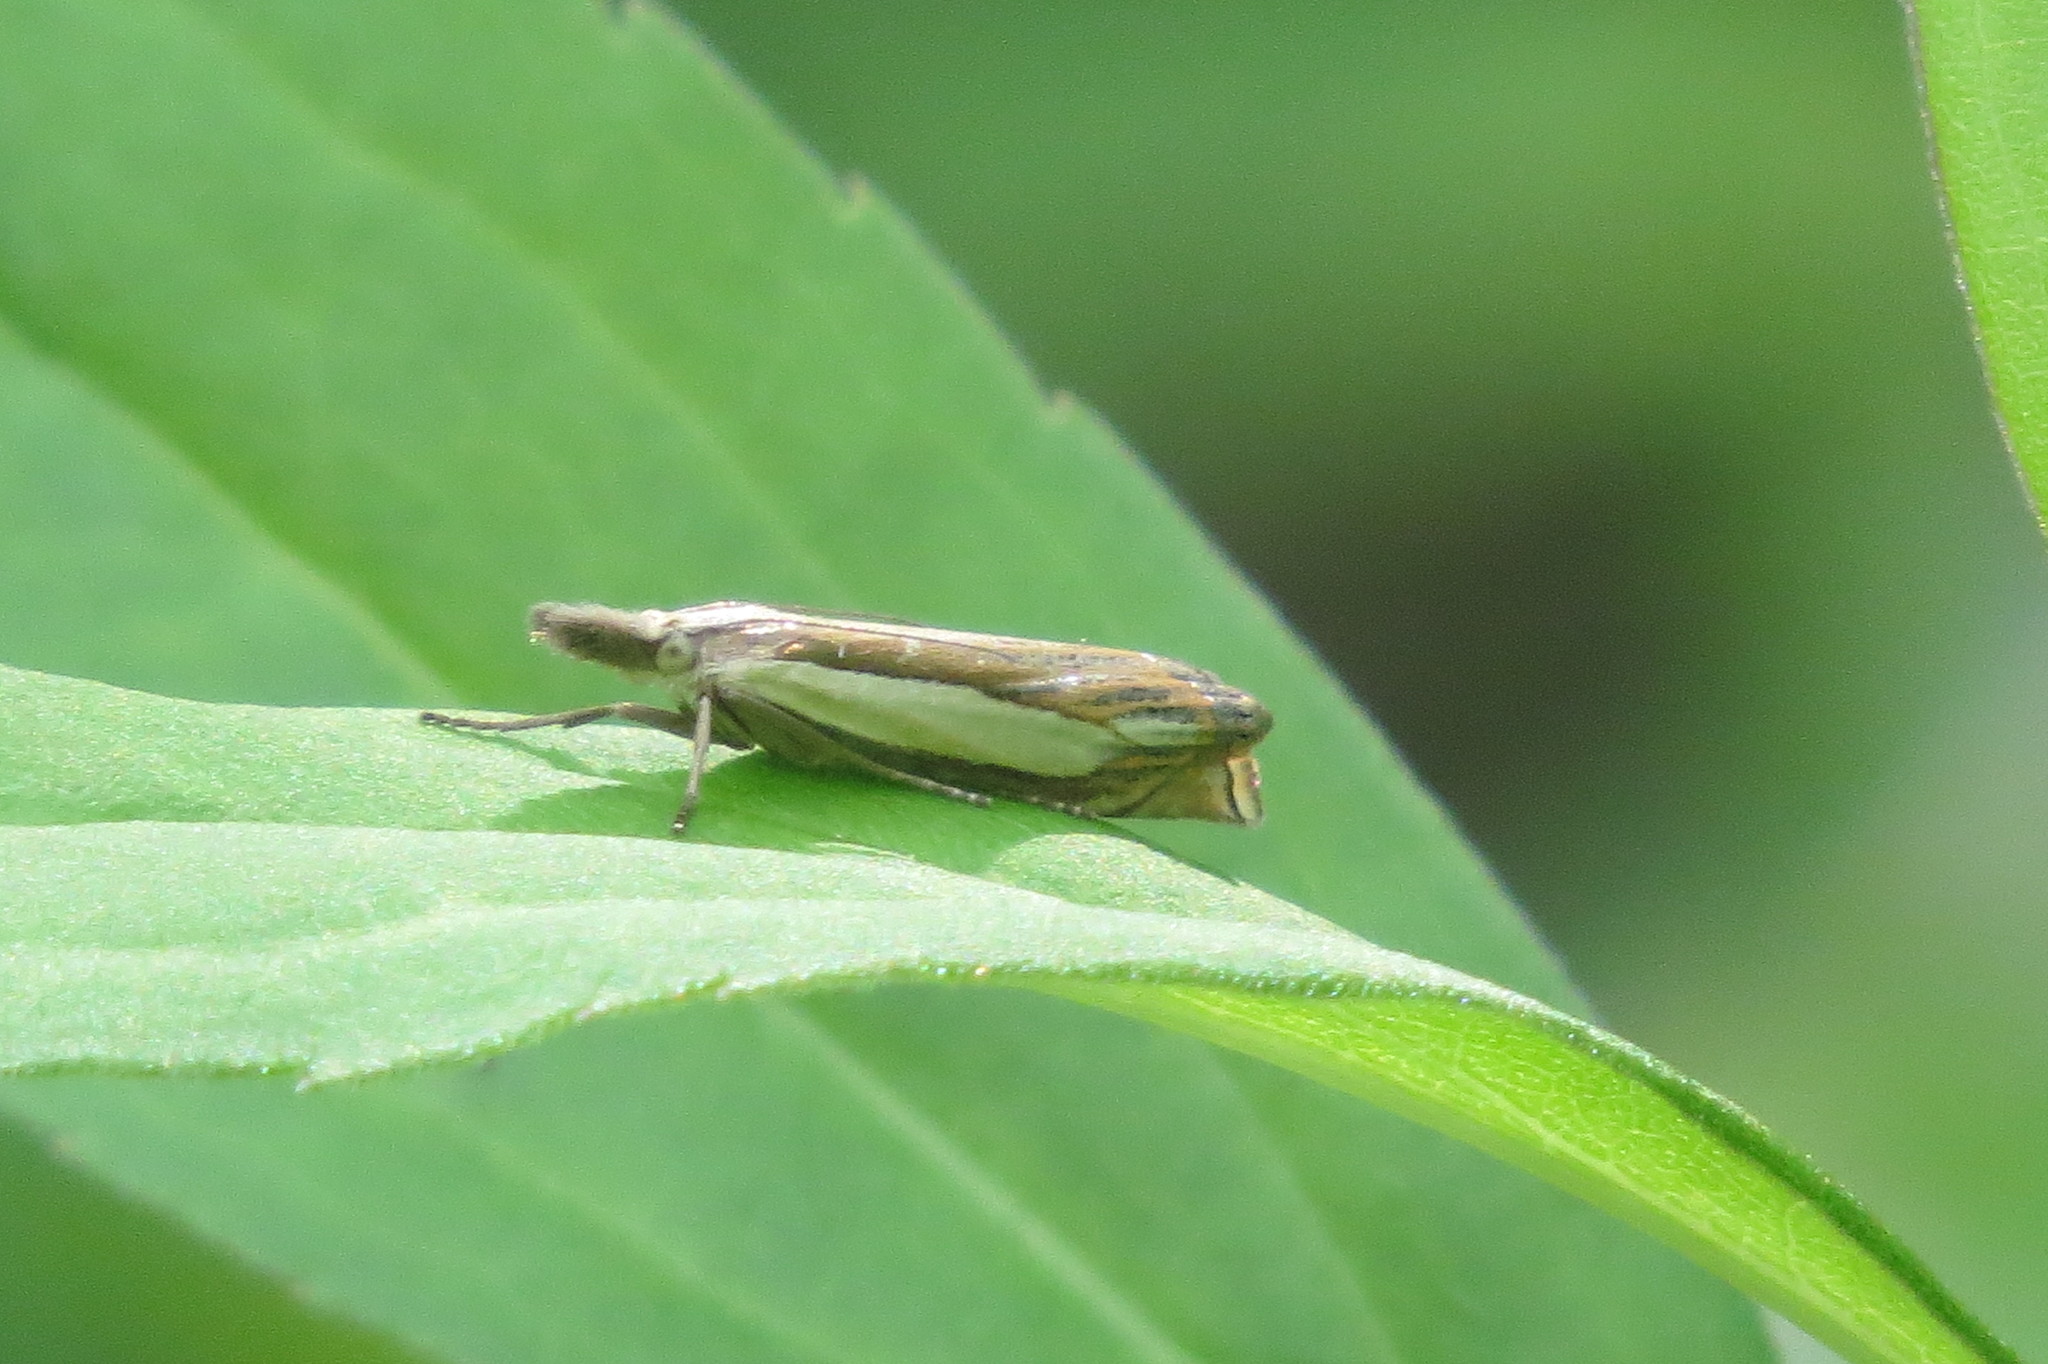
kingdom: Animalia
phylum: Arthropoda
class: Insecta
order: Lepidoptera
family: Crambidae
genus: Crambus
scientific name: Crambus pascuella
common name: Inlaid grass-veneer
